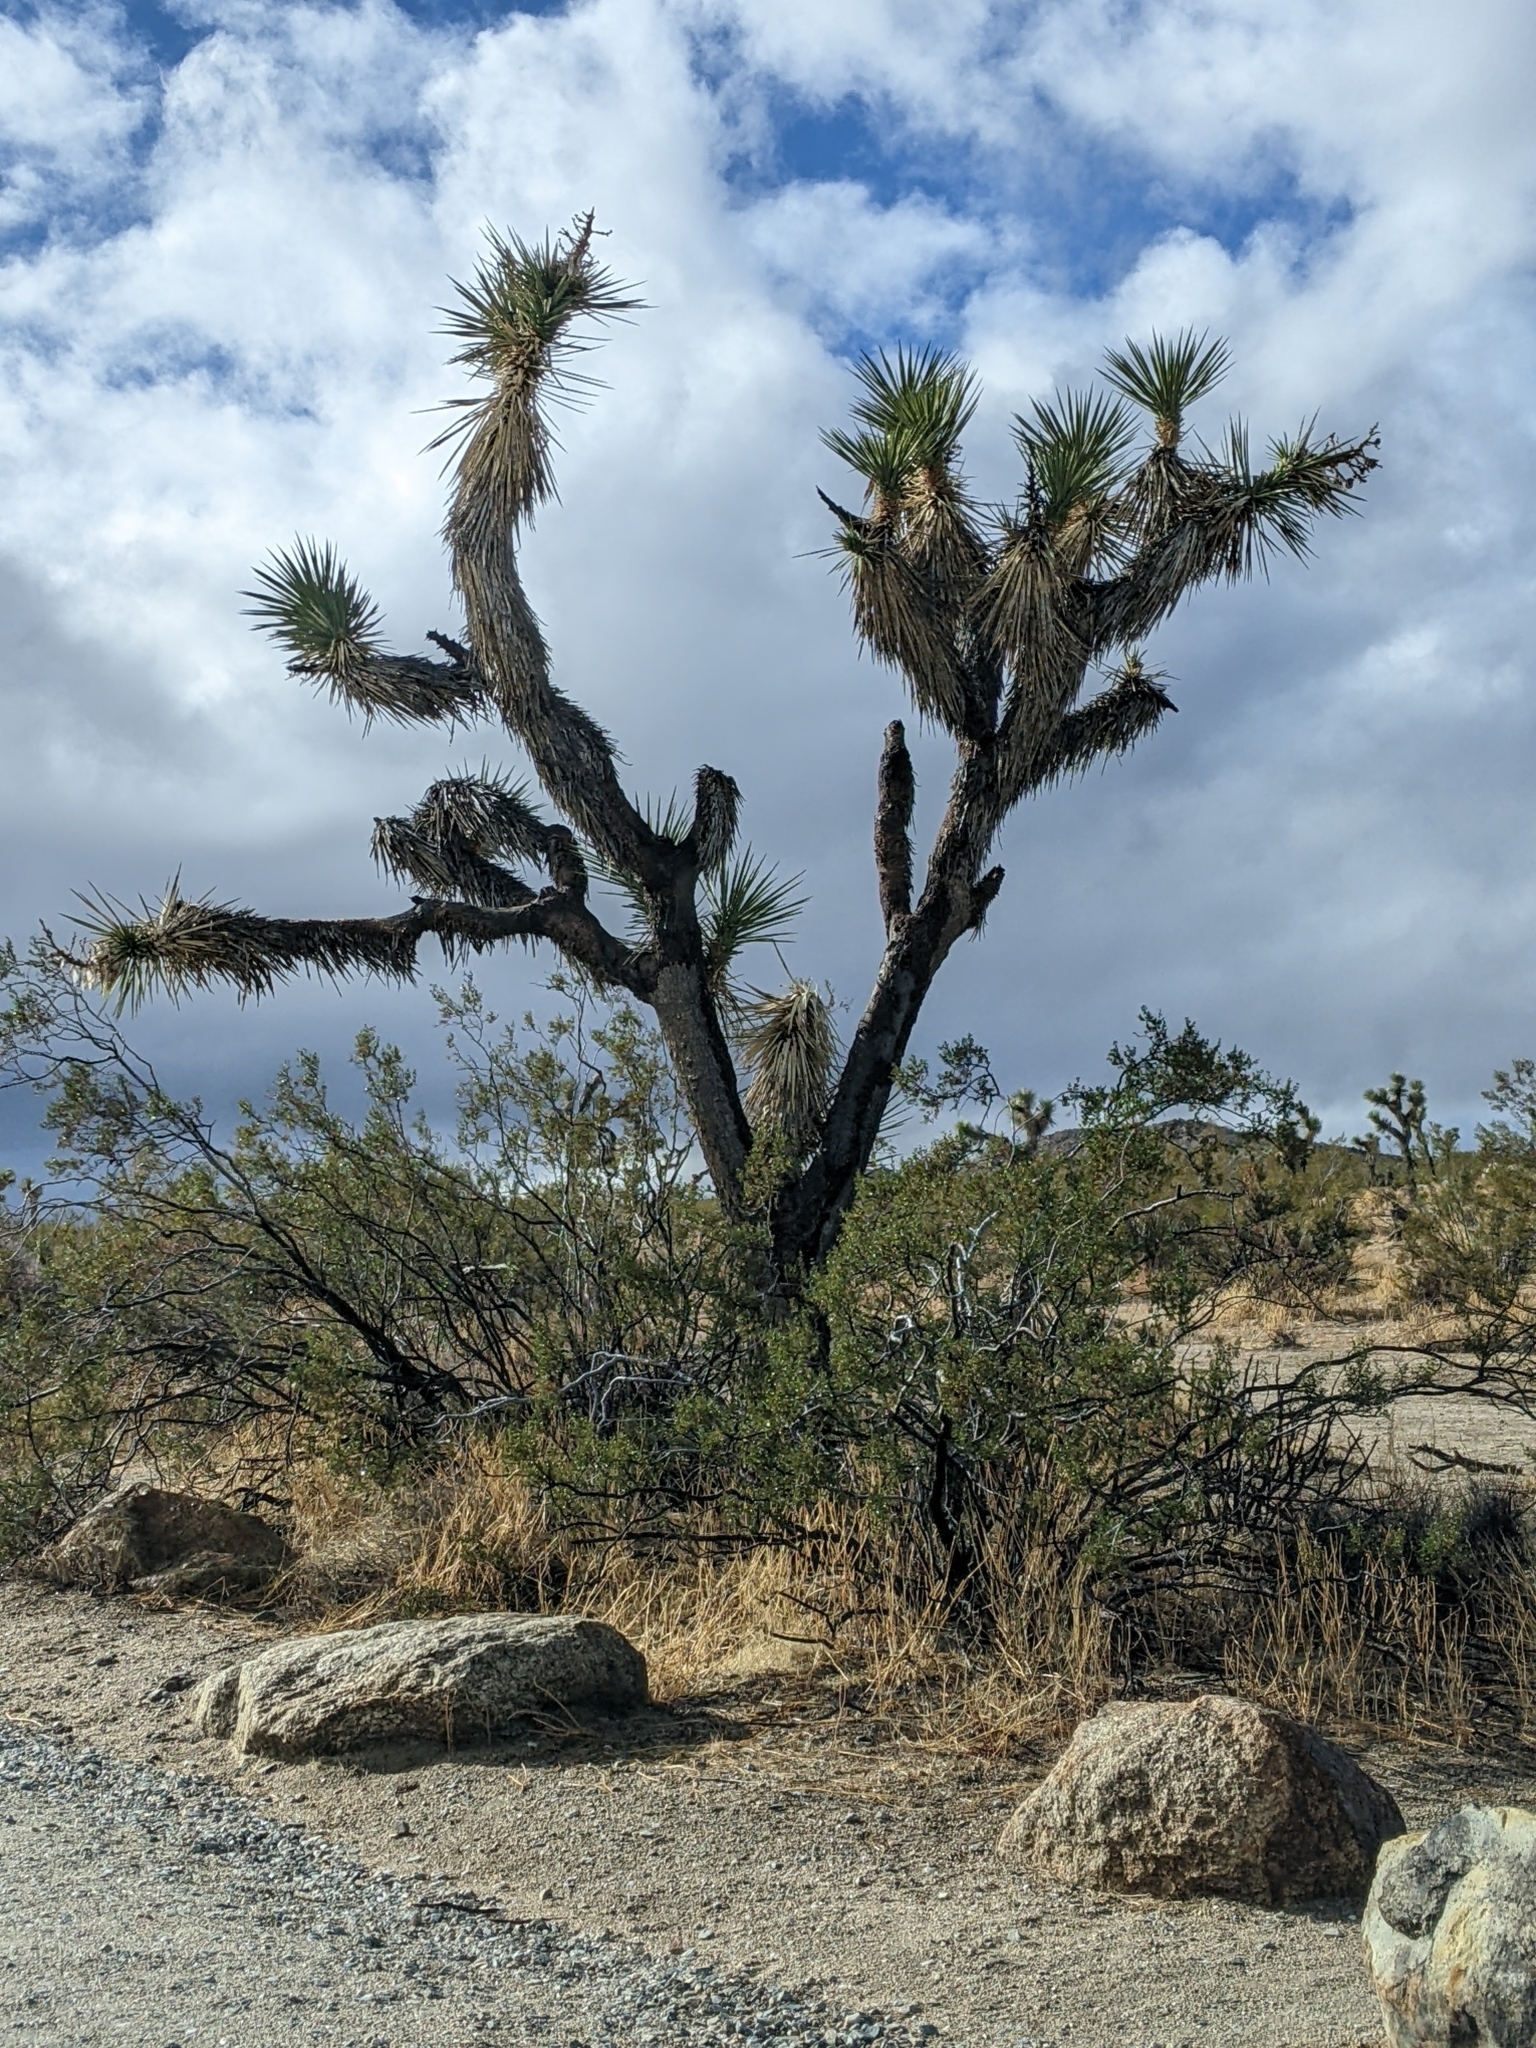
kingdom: Plantae
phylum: Tracheophyta
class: Liliopsida
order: Asparagales
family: Asparagaceae
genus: Yucca
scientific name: Yucca brevifolia
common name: Joshua tree
